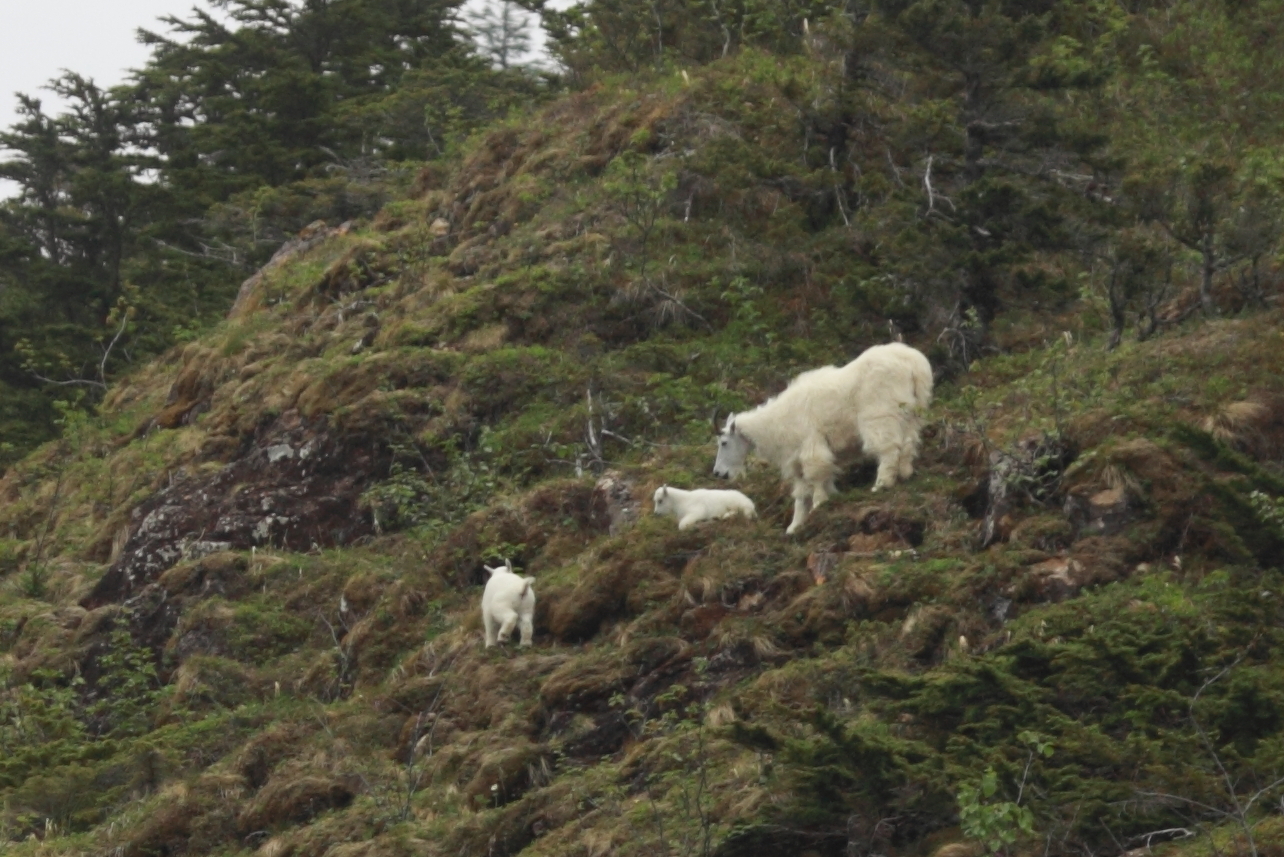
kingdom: Animalia
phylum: Chordata
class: Mammalia
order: Artiodactyla
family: Bovidae
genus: Oreamnos
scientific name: Oreamnos americanus
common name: Mountain goat
